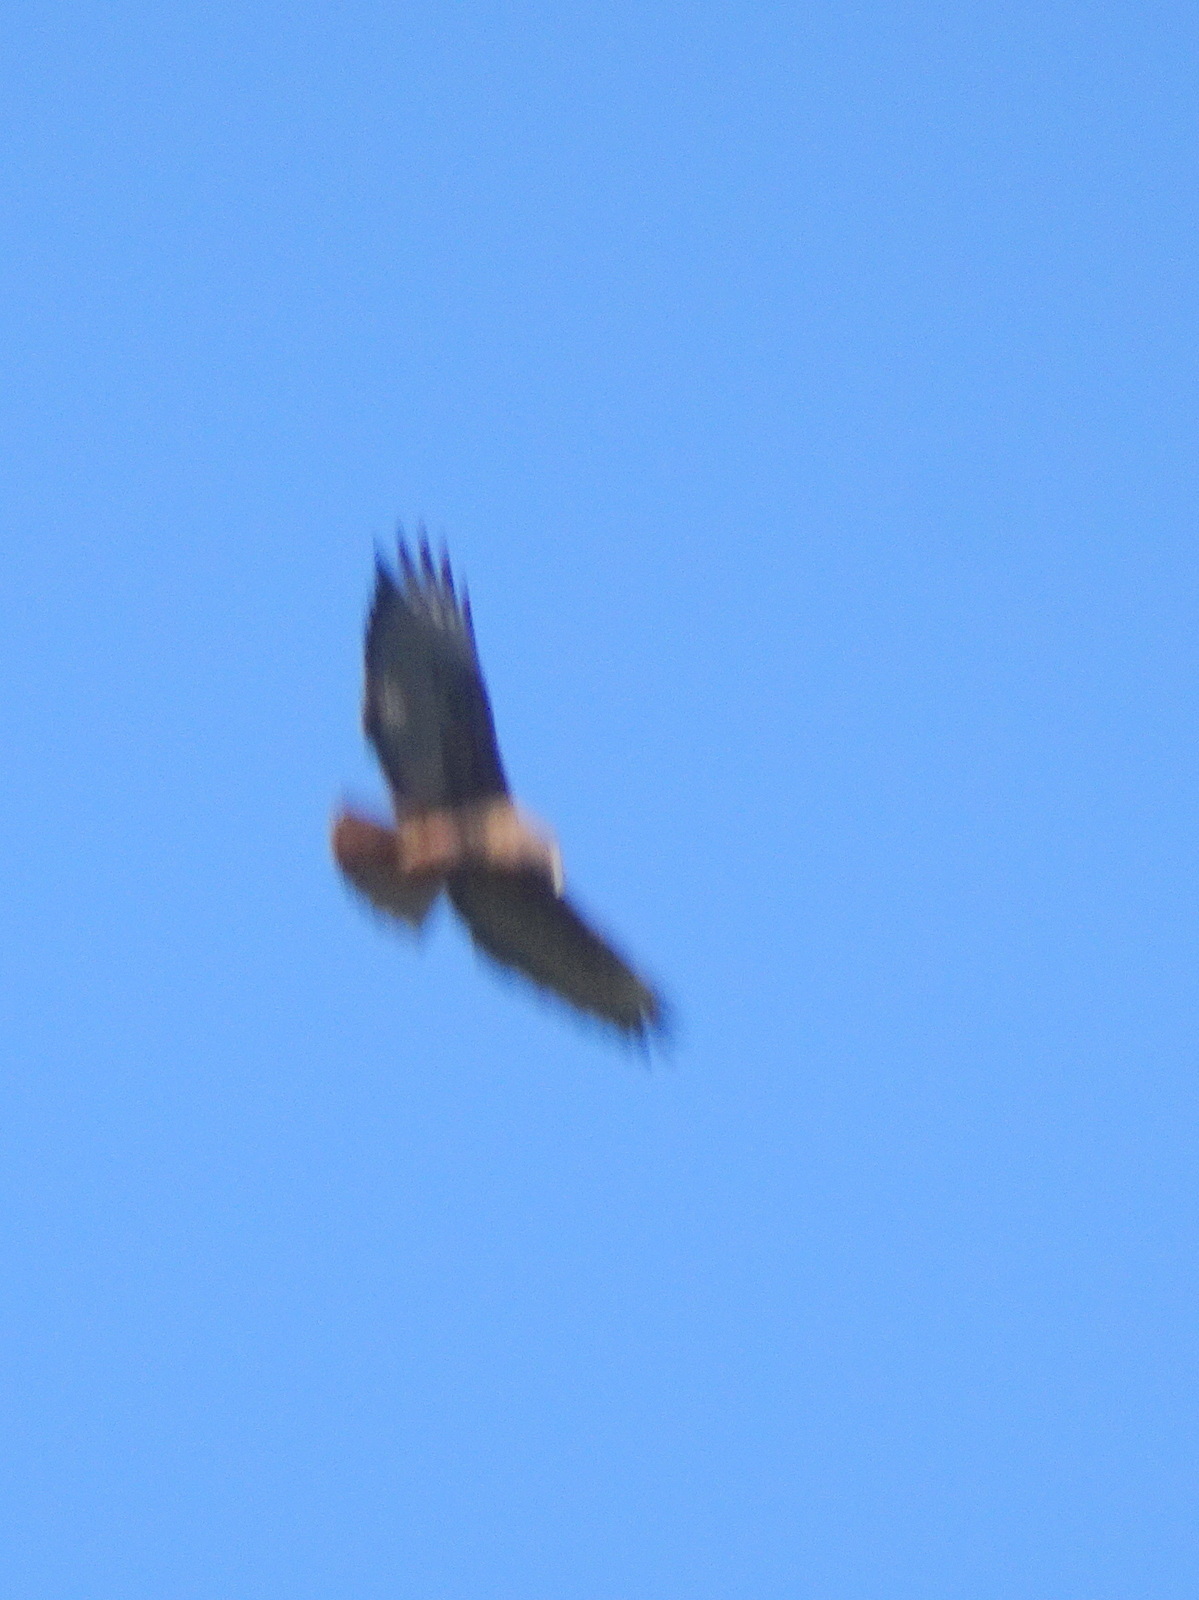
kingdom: Animalia
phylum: Chordata
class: Aves
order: Accipitriformes
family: Accipitridae
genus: Buteo
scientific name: Buteo jamaicensis
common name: Red-tailed hawk
